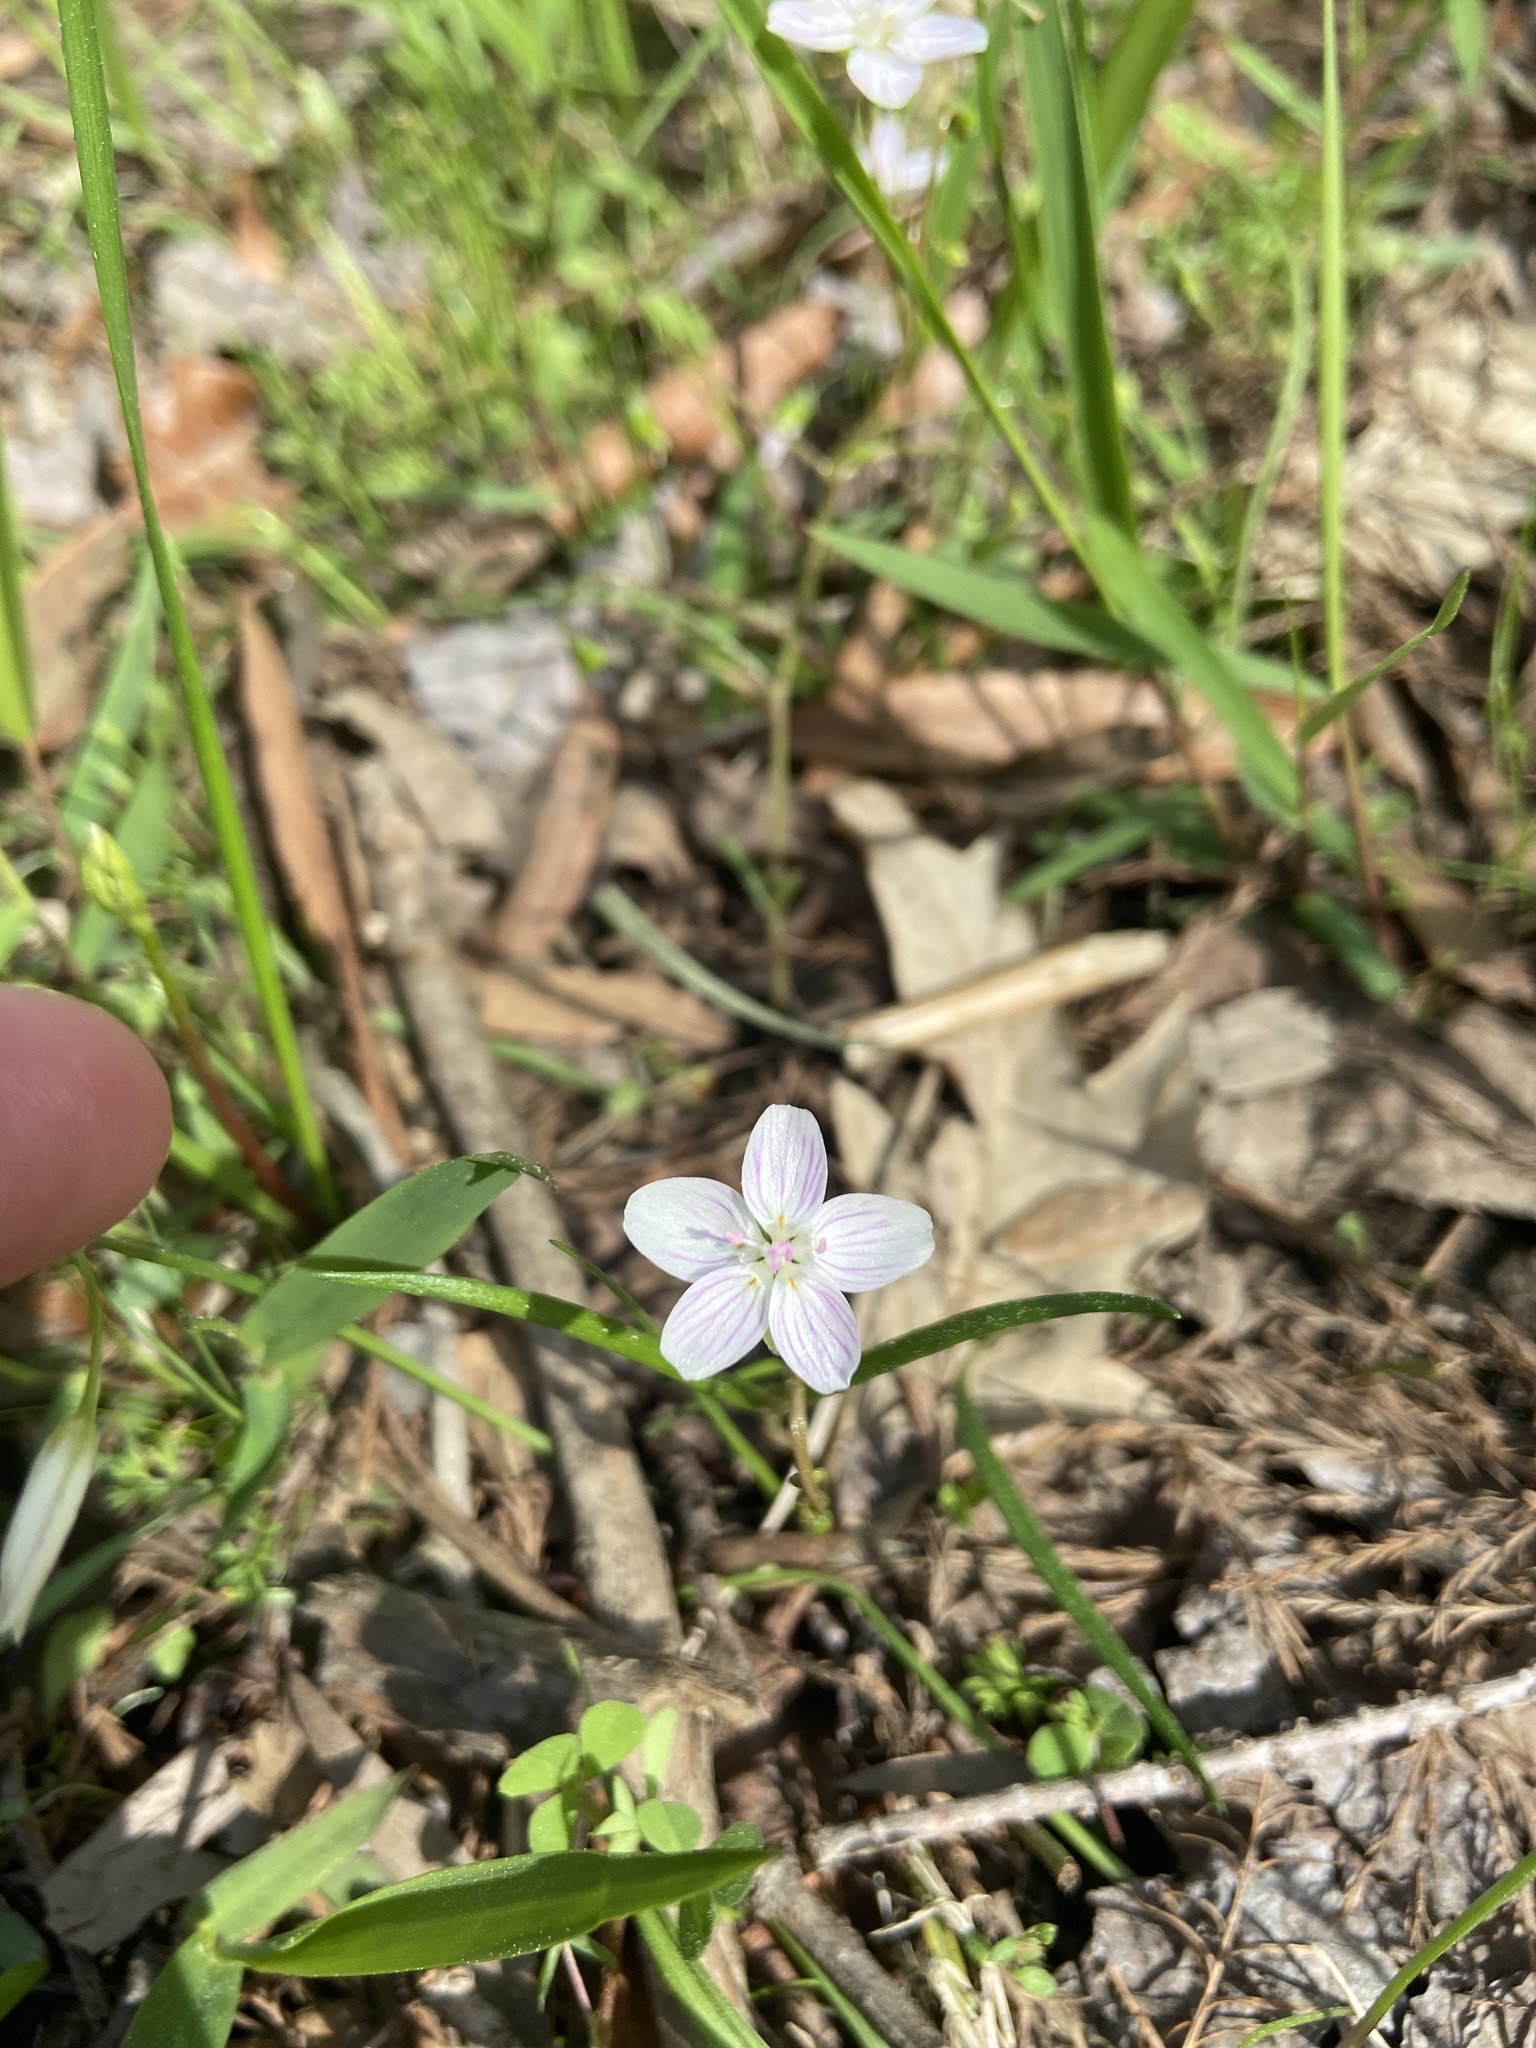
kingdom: Plantae
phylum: Tracheophyta
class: Magnoliopsida
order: Caryophyllales
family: Montiaceae
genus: Claytonia
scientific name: Claytonia virginica
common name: Virginia springbeauty
